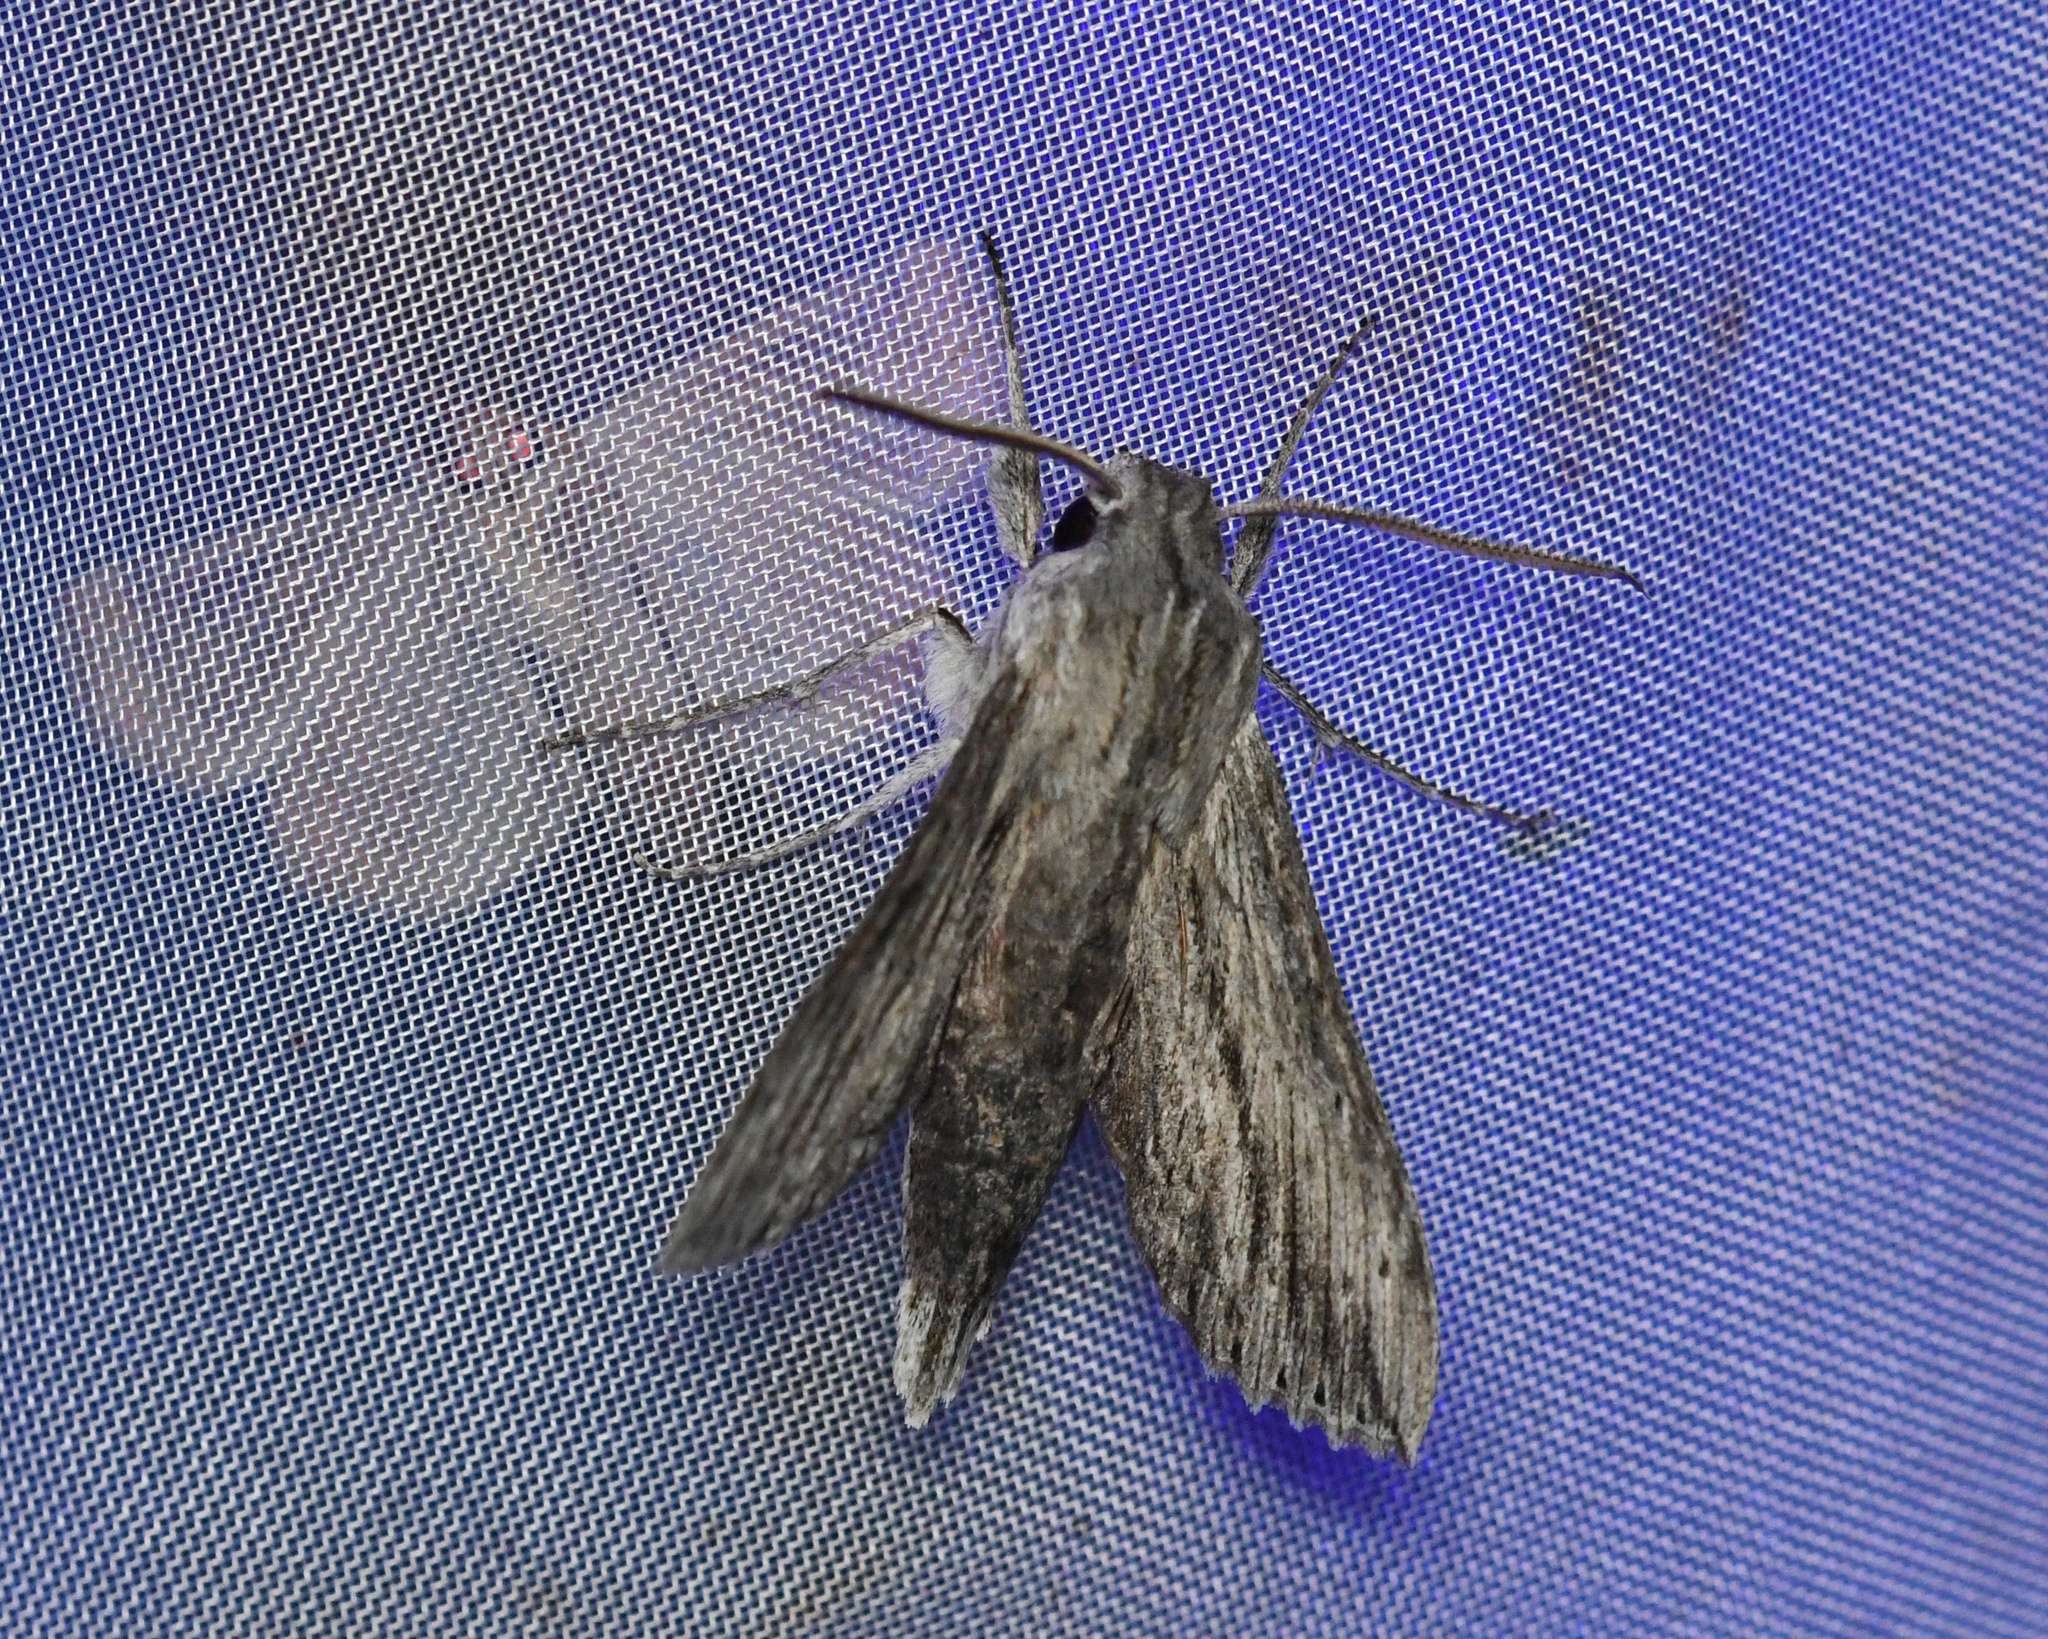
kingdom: Animalia
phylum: Arthropoda
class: Insecta
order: Lepidoptera
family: Sphingidae
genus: Erinnyis
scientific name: Erinnyis guttularis
